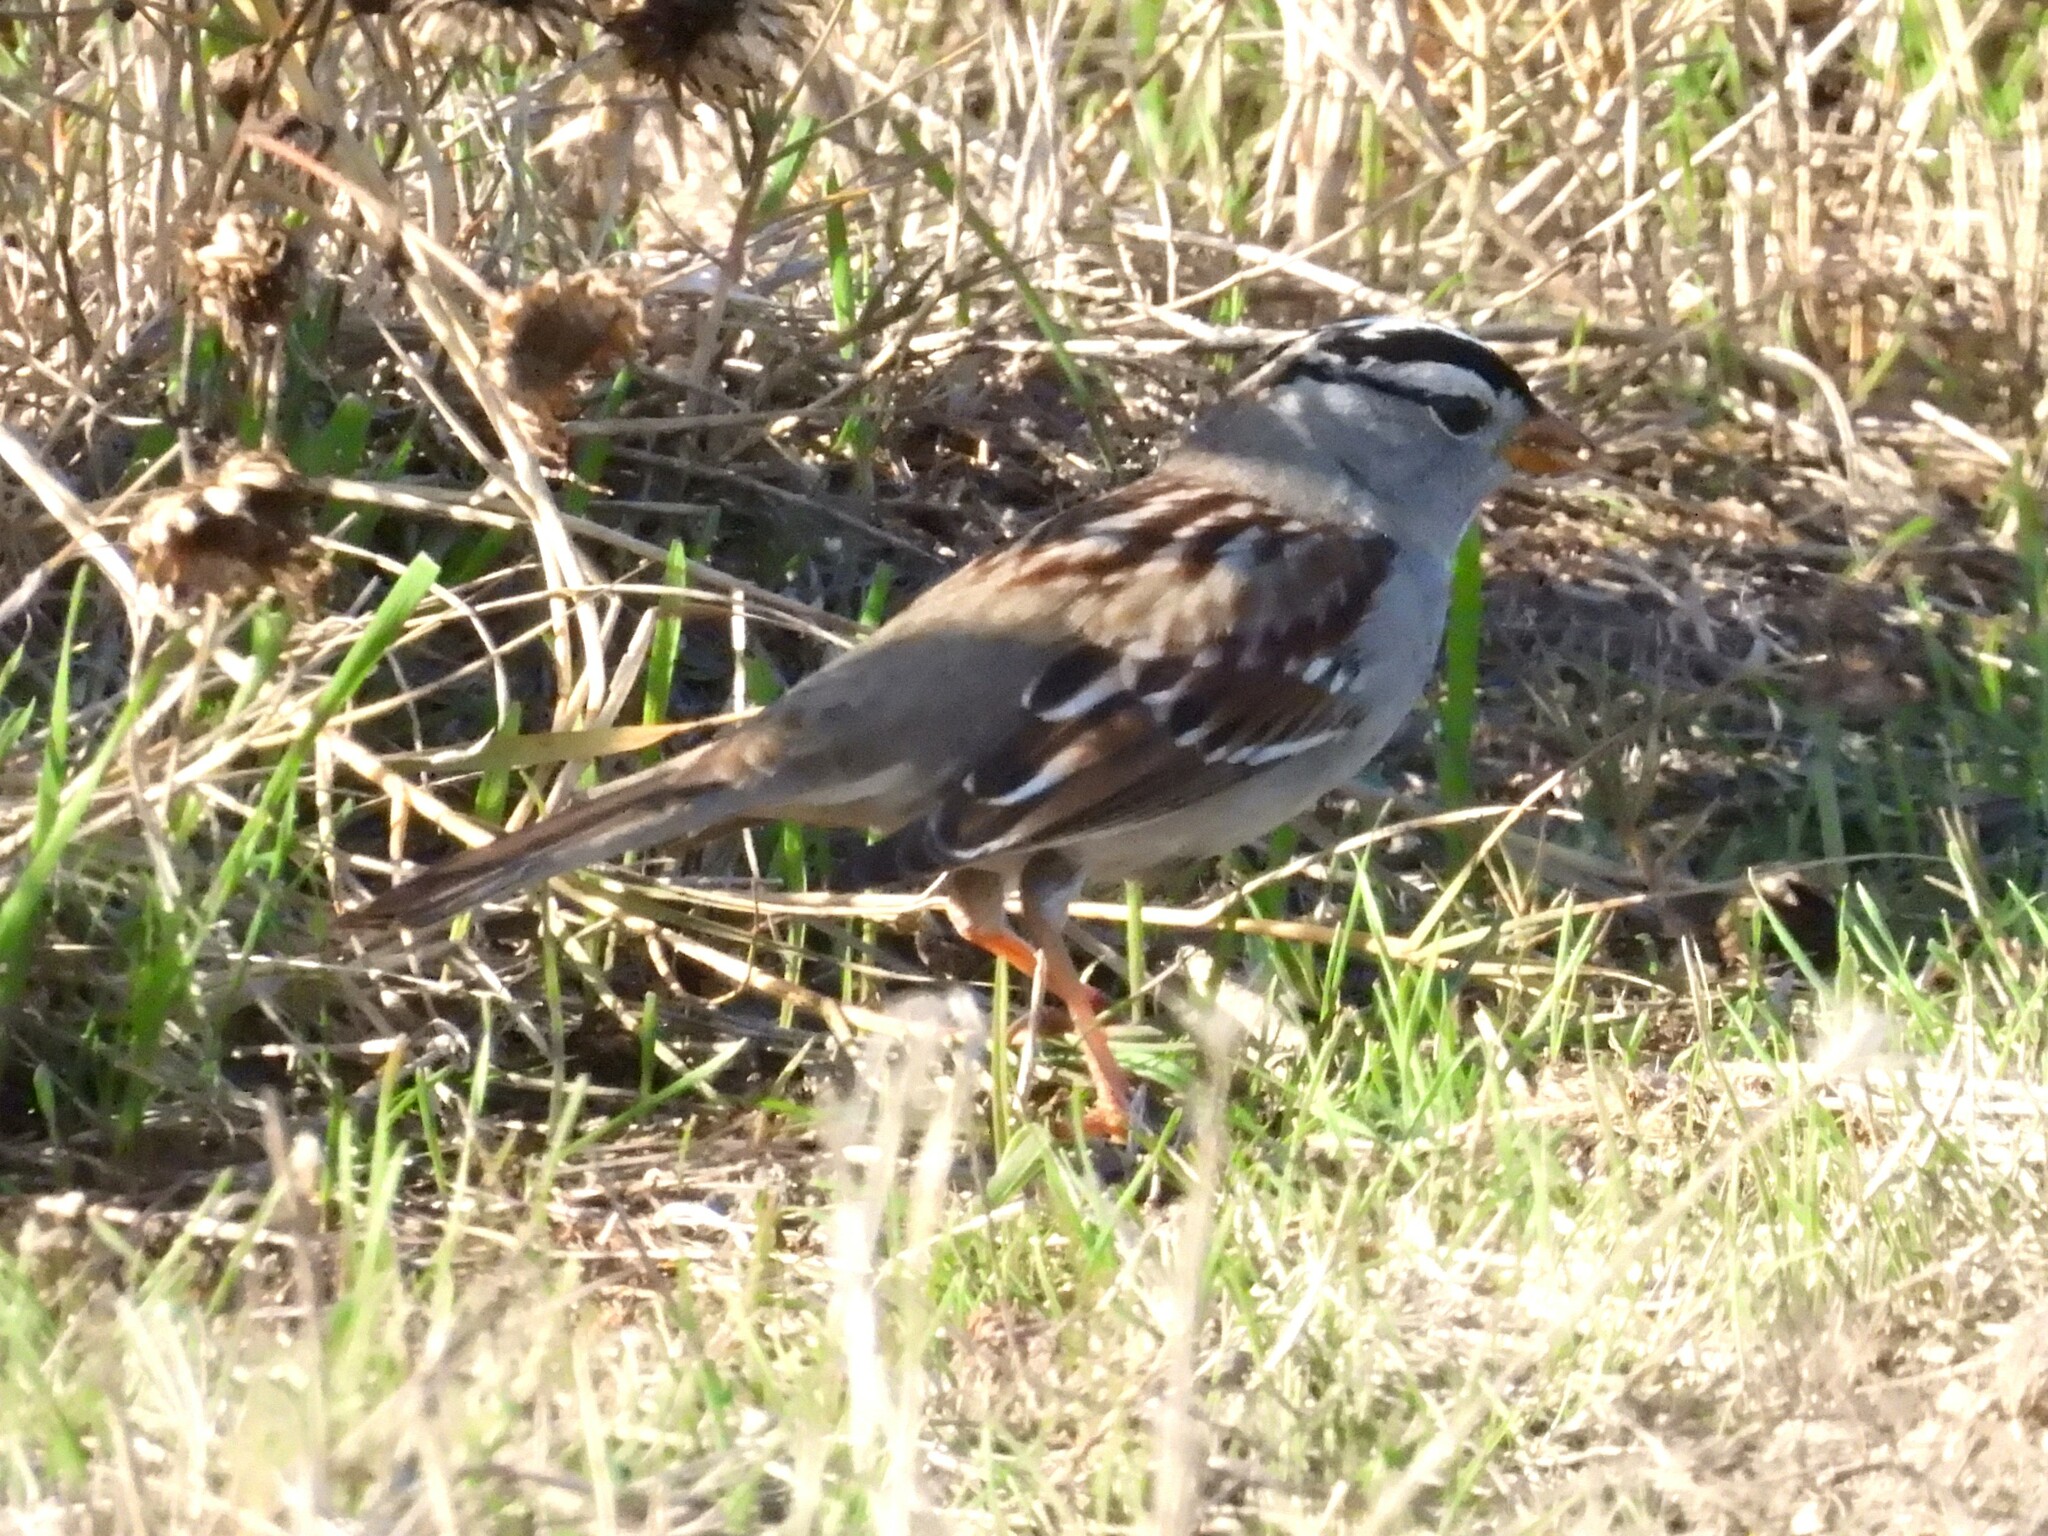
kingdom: Animalia
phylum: Chordata
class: Aves
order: Passeriformes
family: Passerellidae
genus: Zonotrichia
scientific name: Zonotrichia leucophrys
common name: White-crowned sparrow
